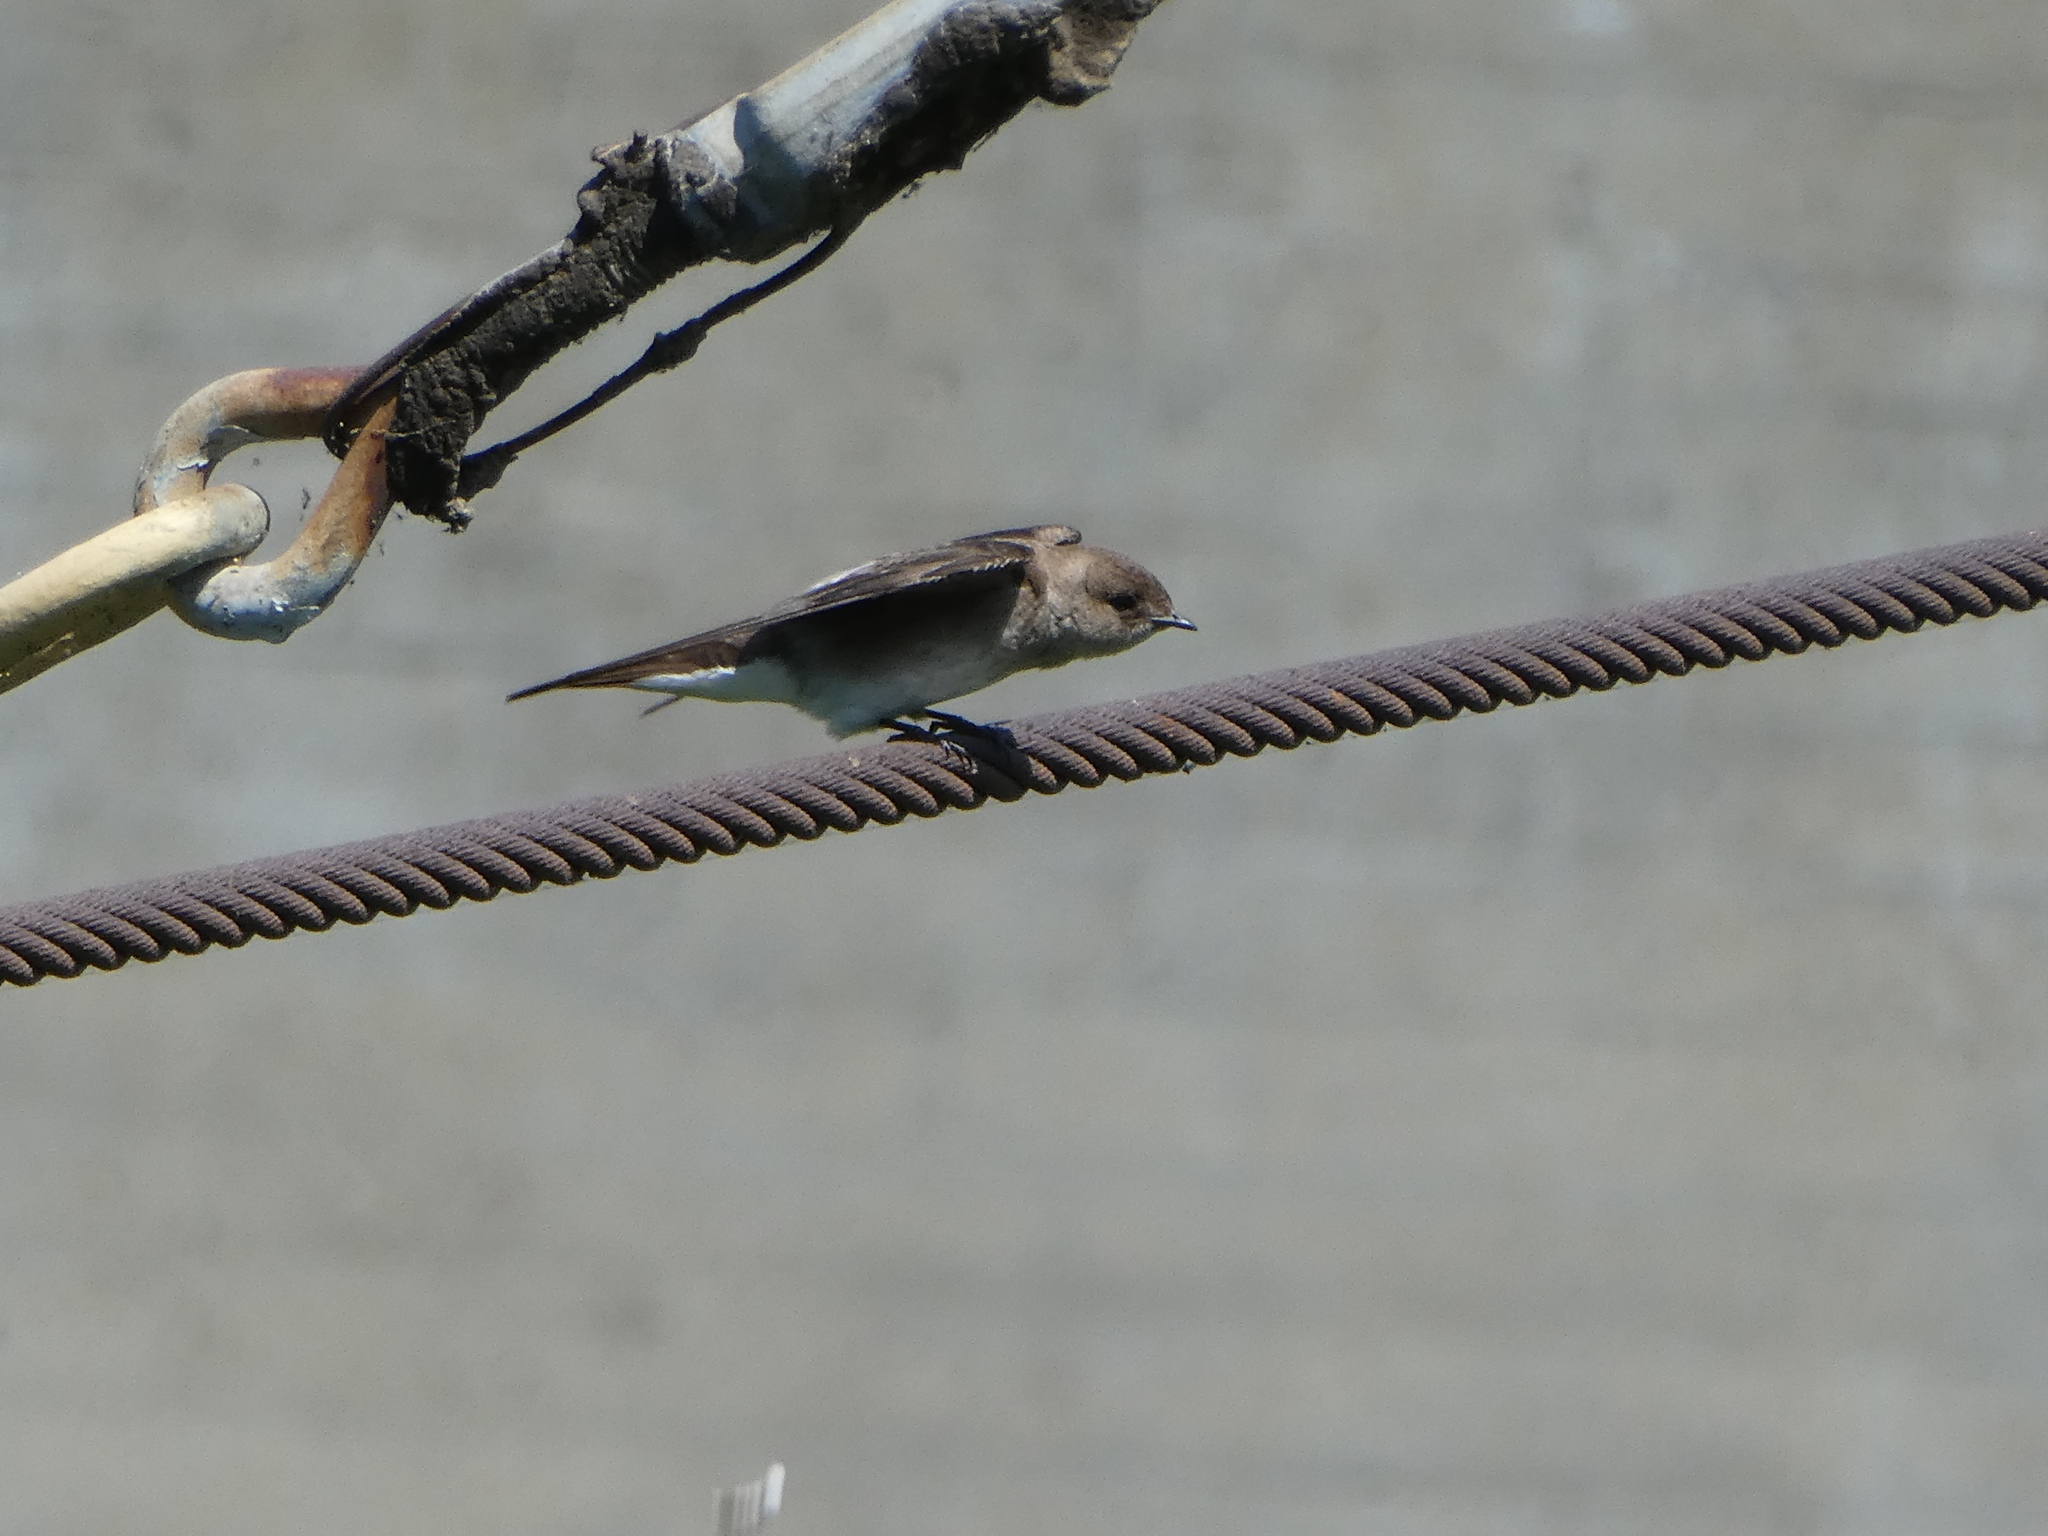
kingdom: Animalia
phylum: Chordata
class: Aves
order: Passeriformes
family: Hirundinidae
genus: Stelgidopteryx
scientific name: Stelgidopteryx serripennis
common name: Northern rough-winged swallow
